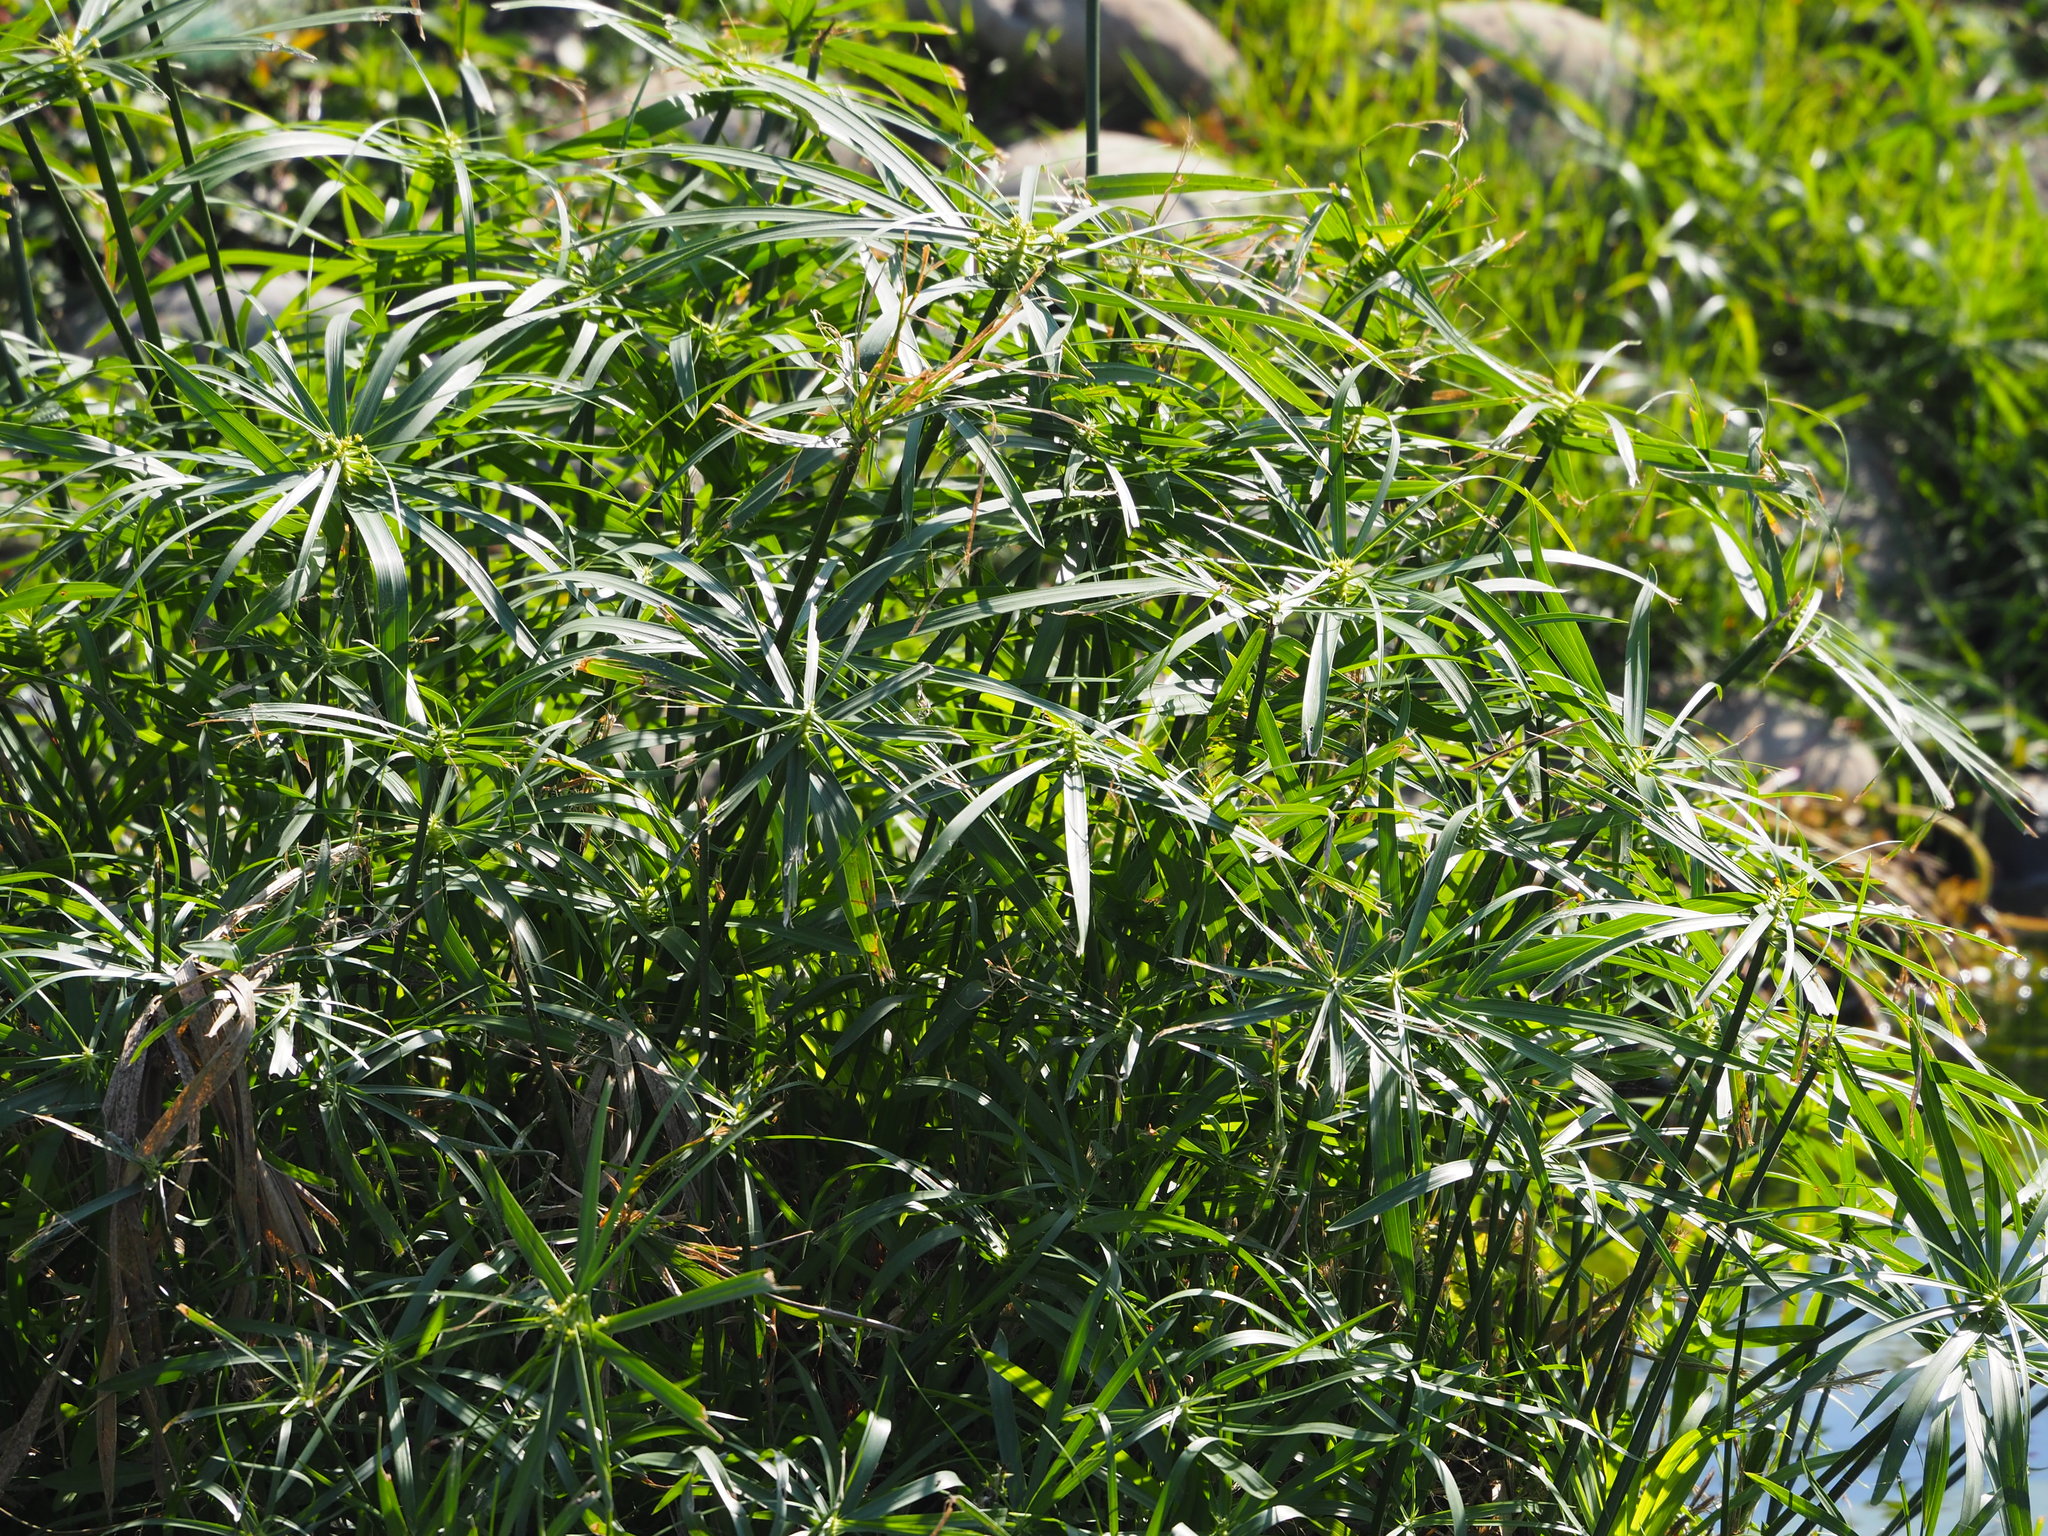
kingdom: Plantae
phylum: Tracheophyta
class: Liliopsida
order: Poales
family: Cyperaceae
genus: Cyperus
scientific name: Cyperus alternifolius
